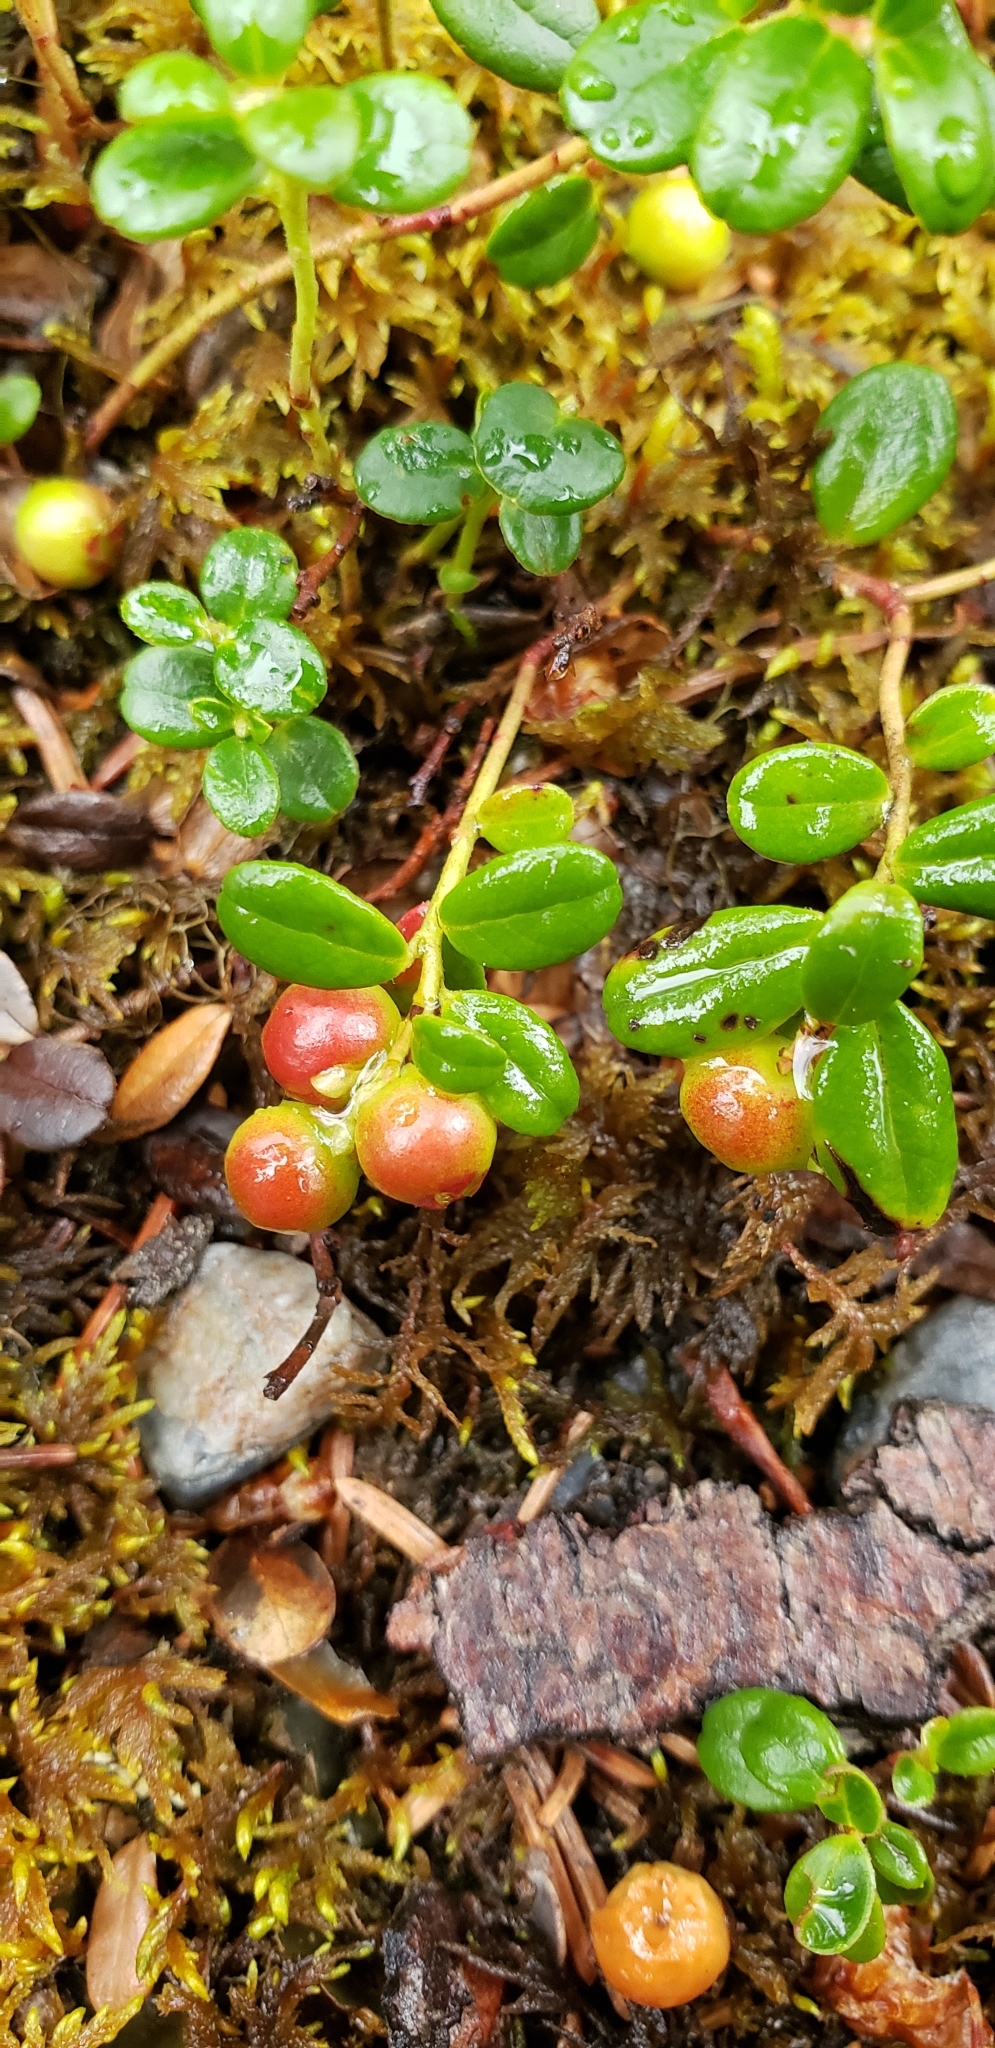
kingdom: Plantae
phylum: Tracheophyta
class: Magnoliopsida
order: Ericales
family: Ericaceae
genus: Vaccinium
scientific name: Vaccinium vitis-idaea
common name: Cowberry
